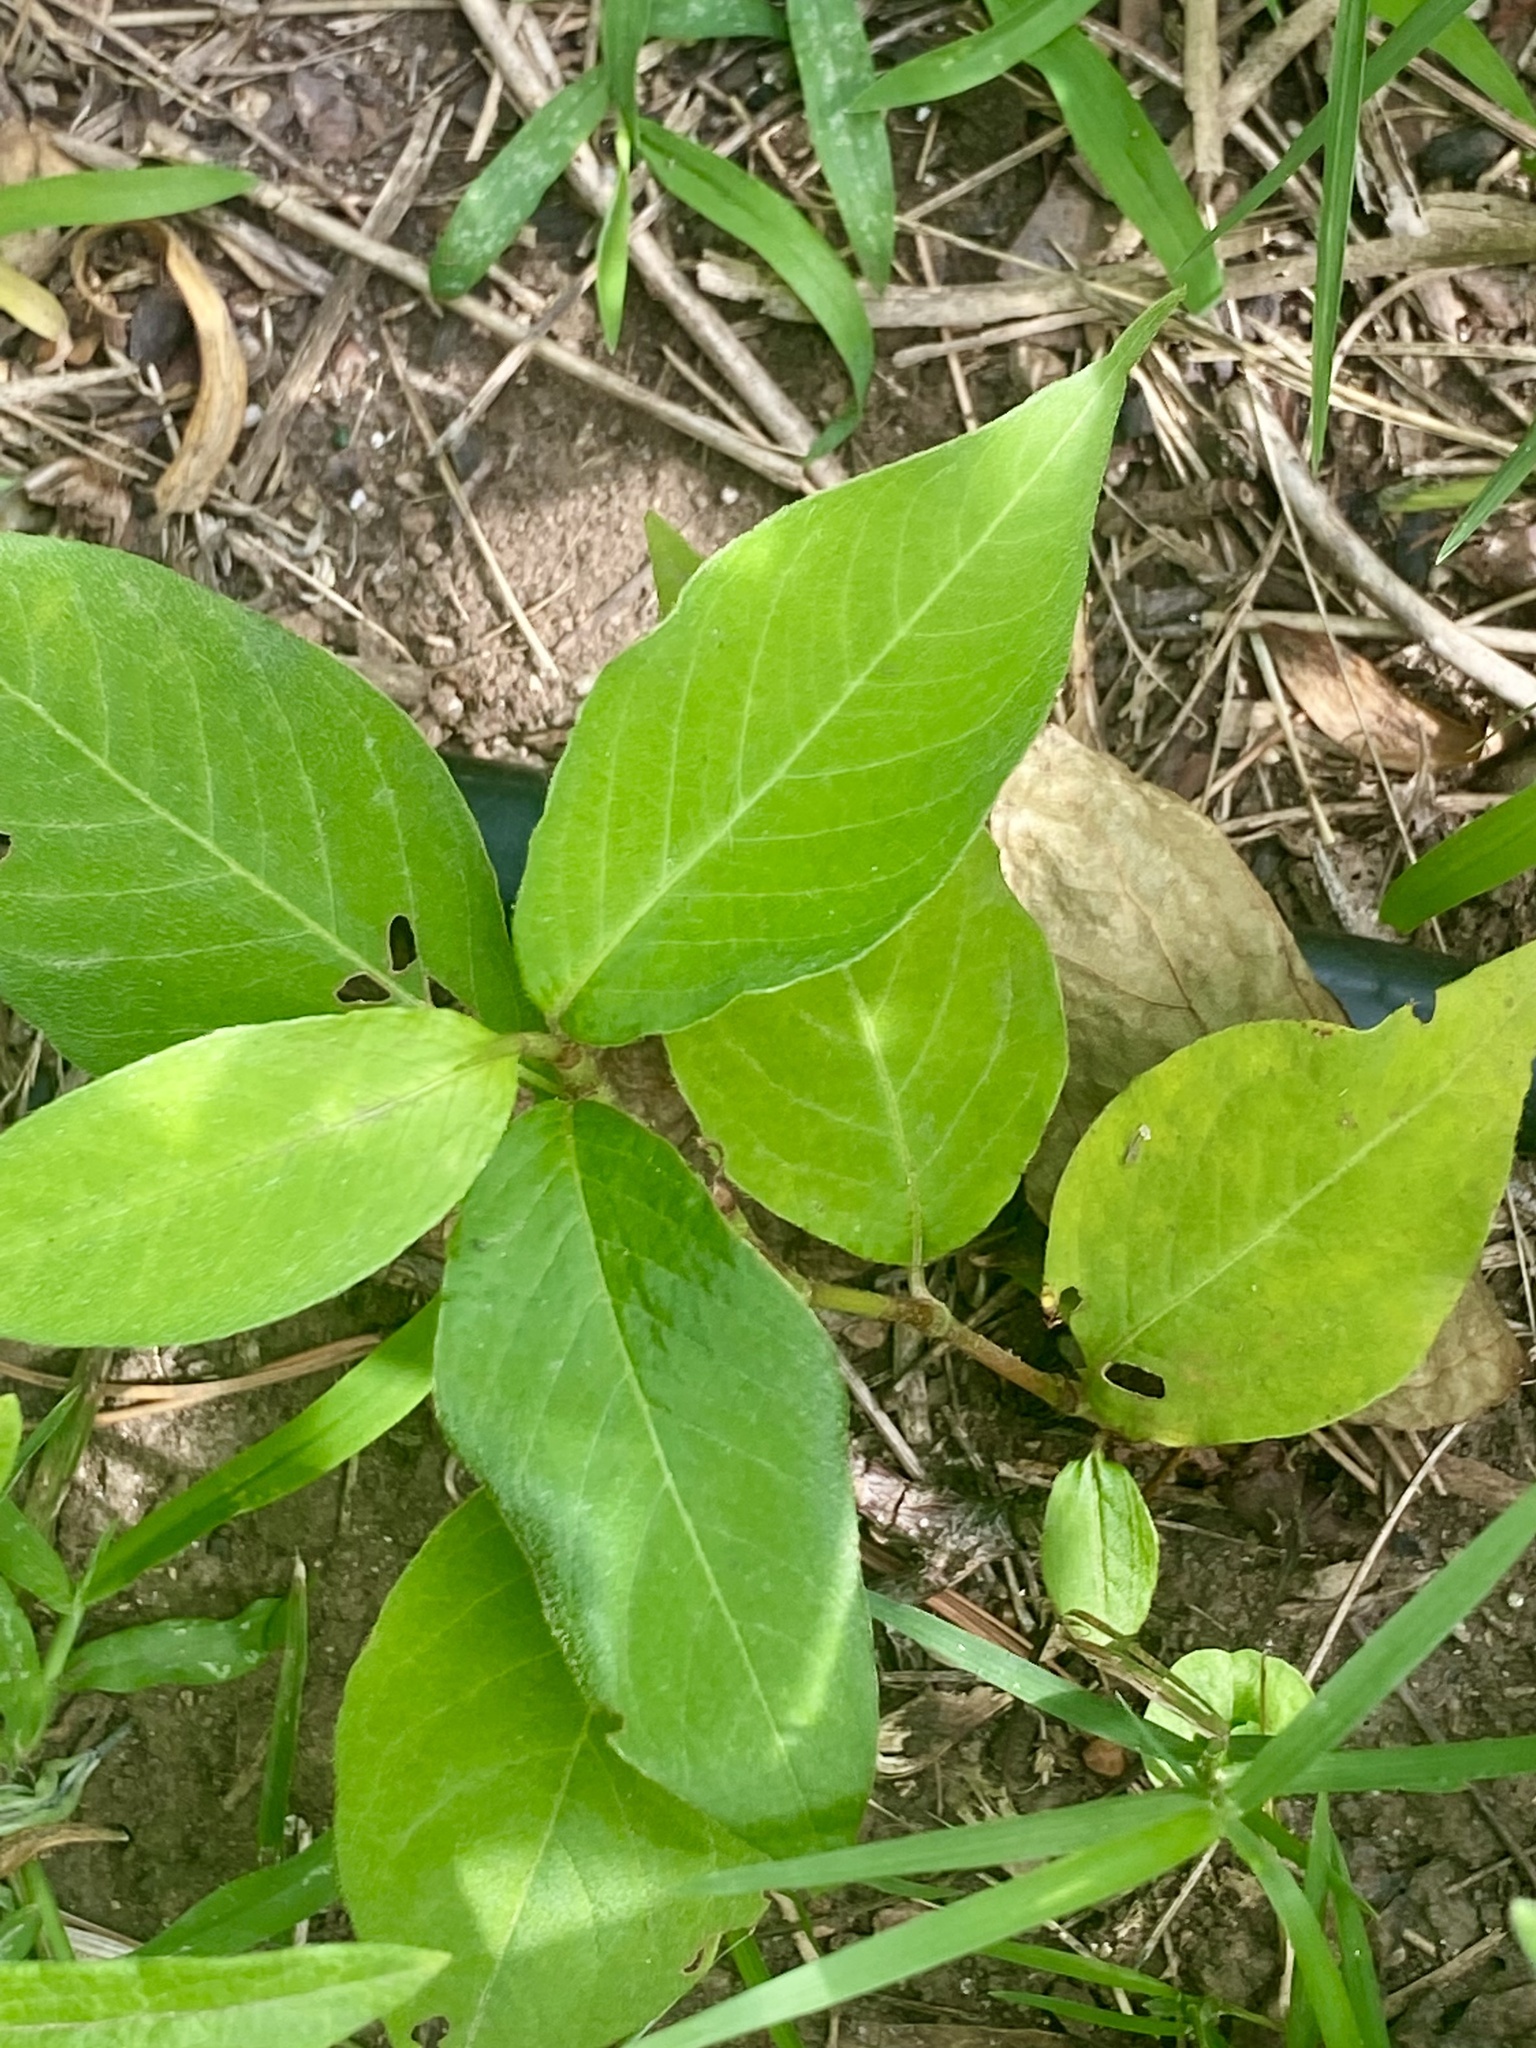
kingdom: Plantae
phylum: Tracheophyta
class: Magnoliopsida
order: Caryophyllales
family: Polygonaceae
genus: Persicaria
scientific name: Persicaria virginiana
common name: Jumpseed
